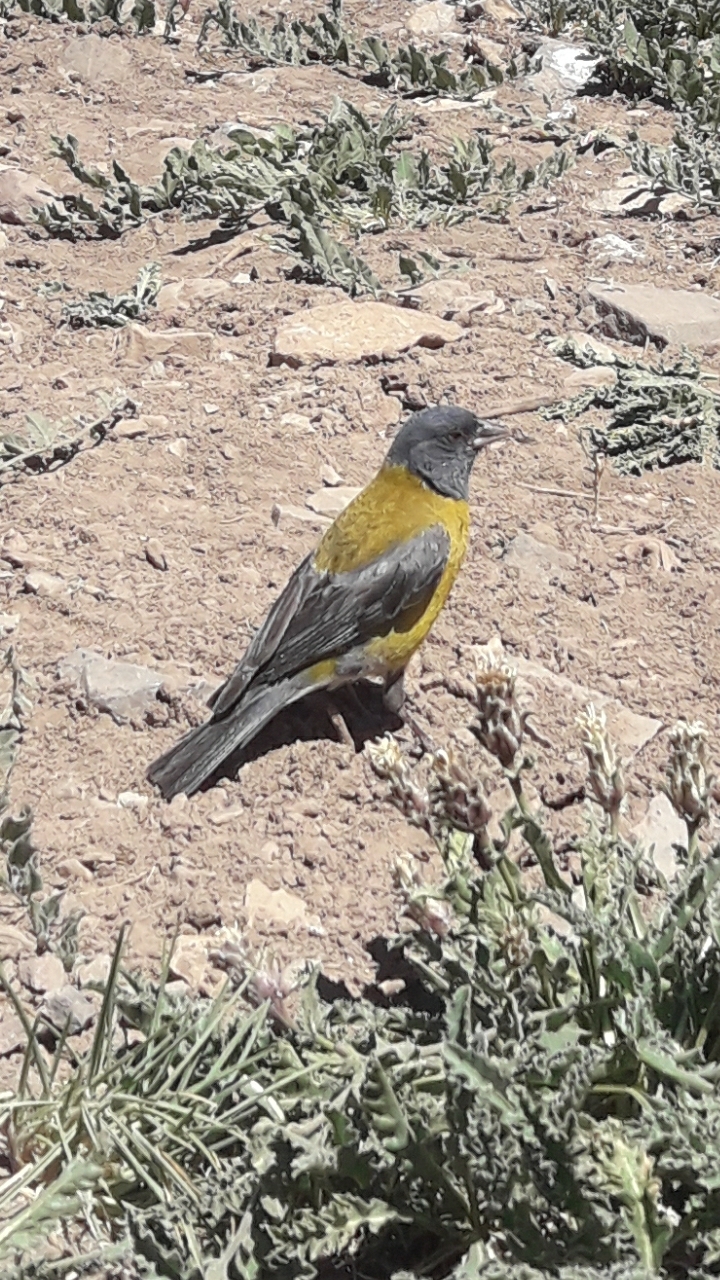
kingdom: Animalia
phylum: Chordata
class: Aves
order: Passeriformes
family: Thraupidae
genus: Phrygilus
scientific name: Phrygilus gayi
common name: Grey-hooded sierra finch
